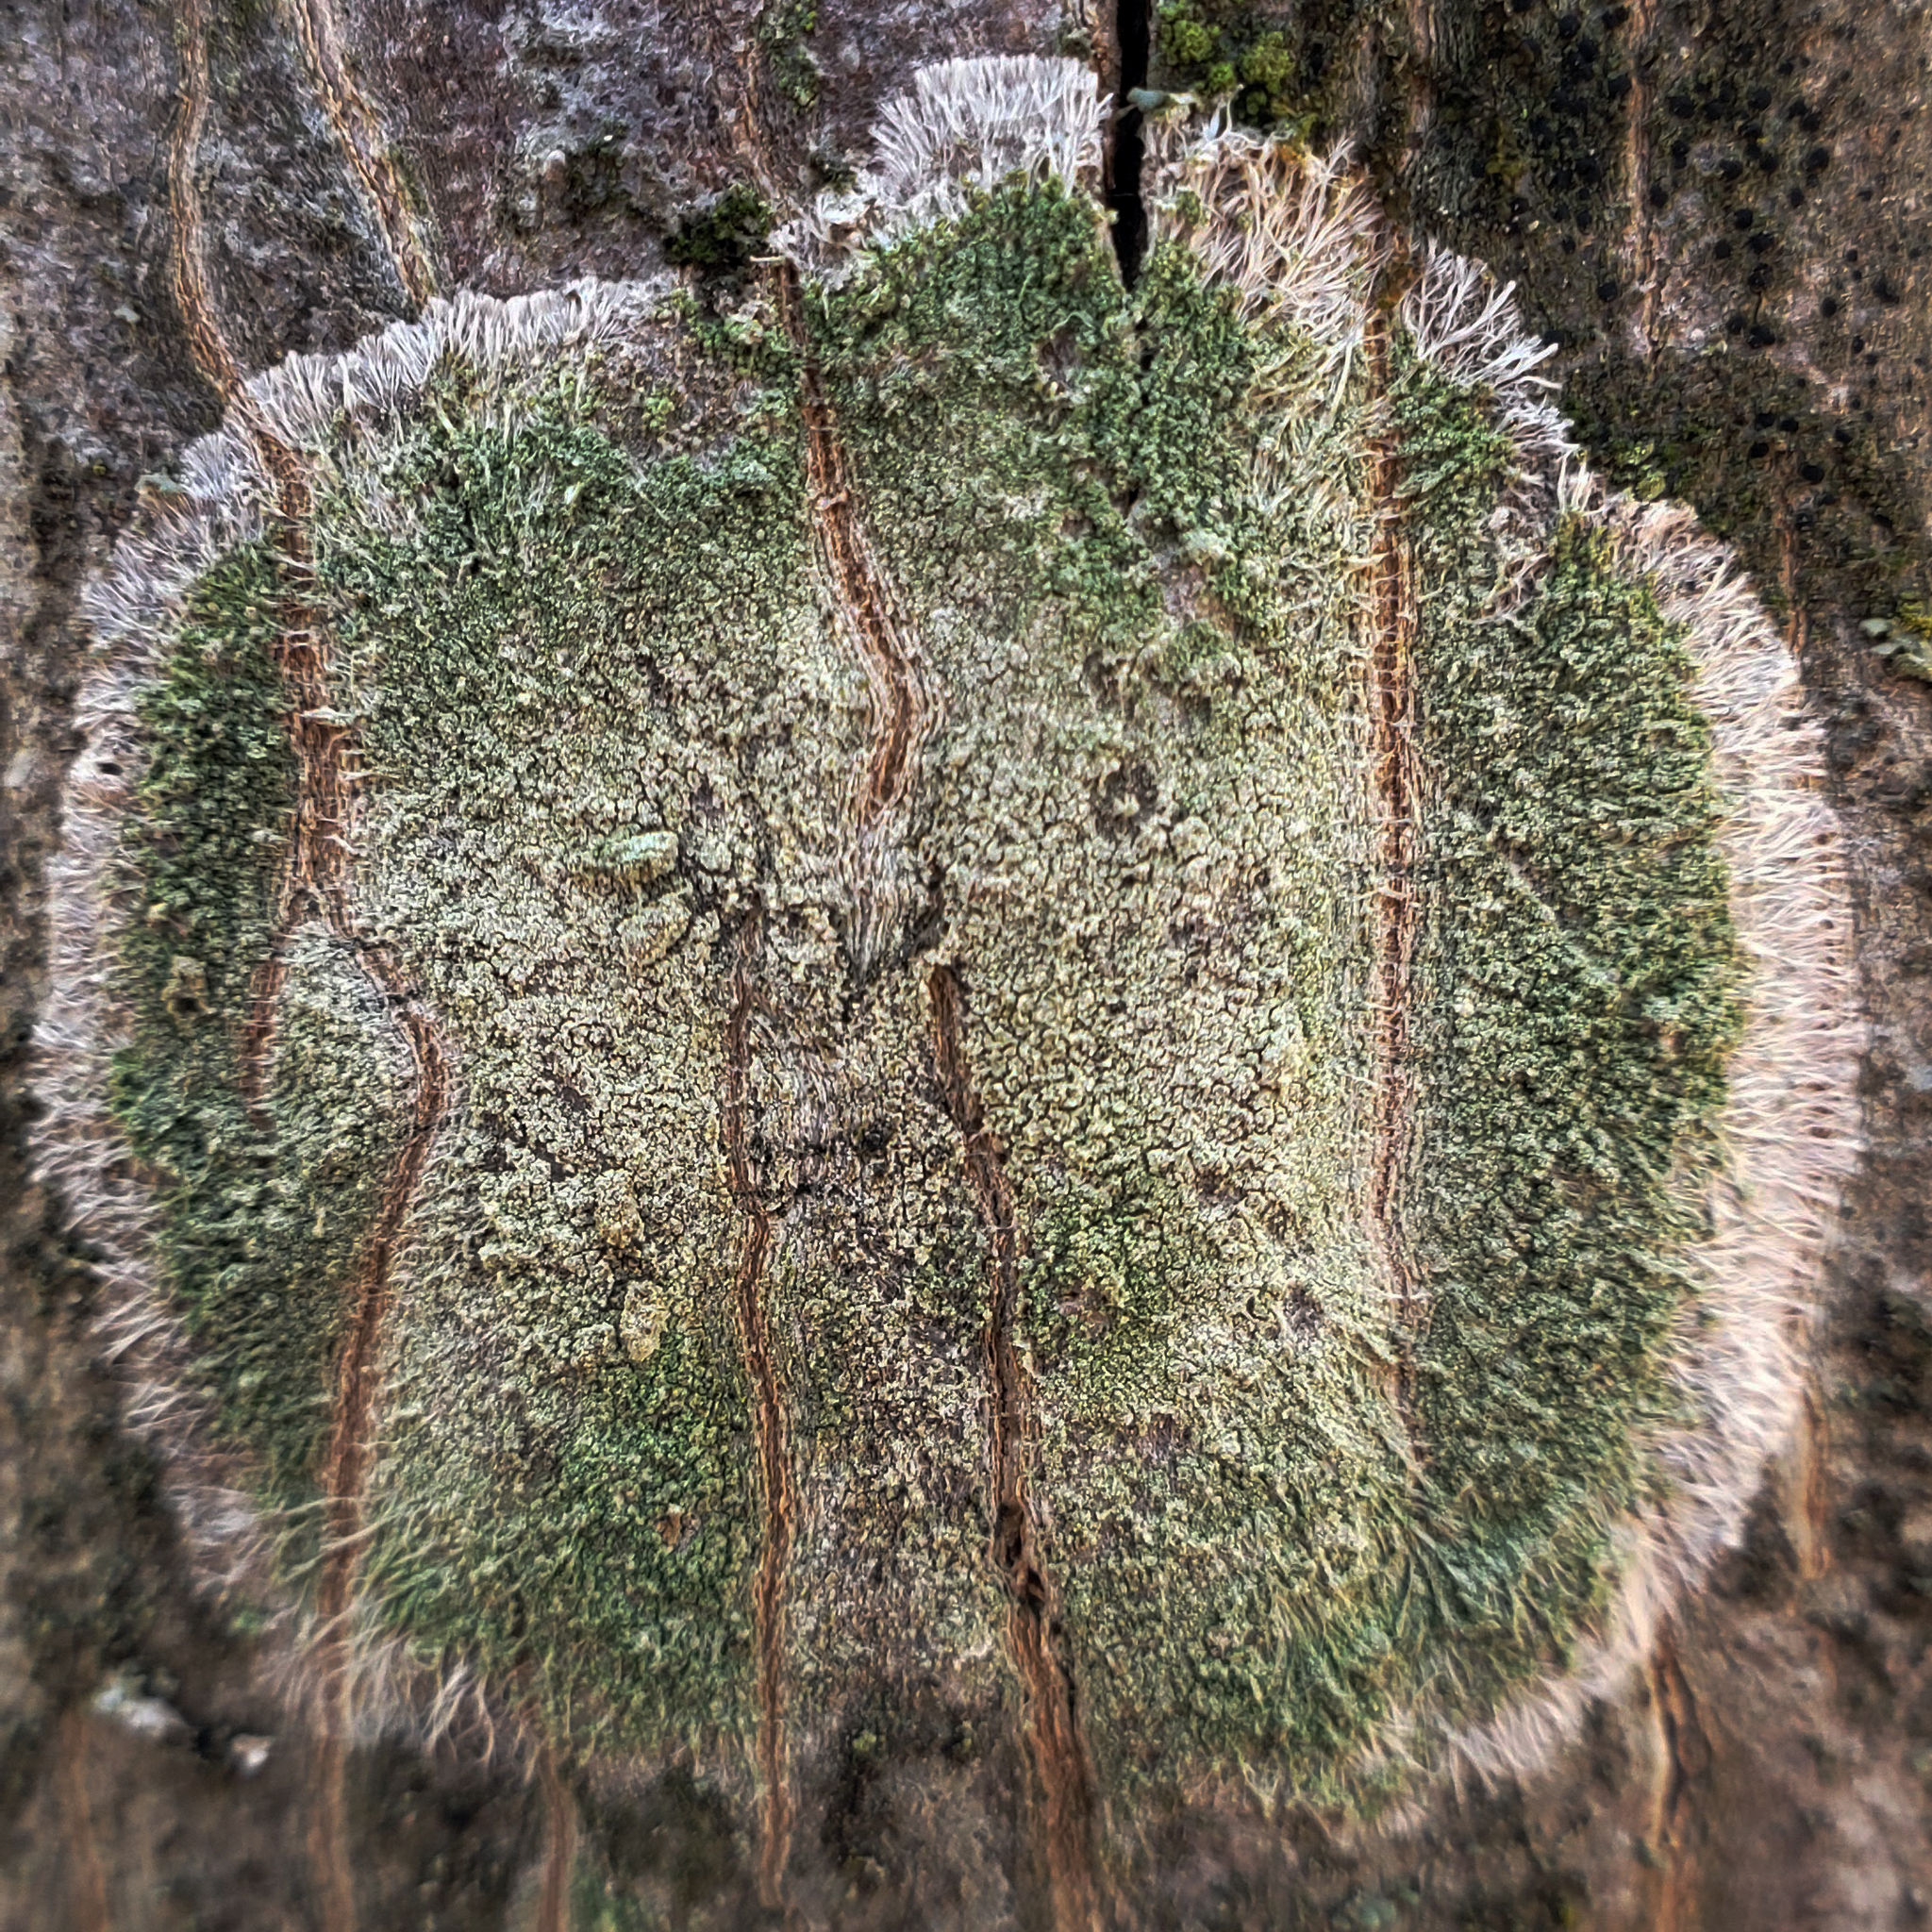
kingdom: Fungi
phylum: Ascomycota
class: Lecanoromycetes
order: Pertusariales
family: Pertusariaceae
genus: Verseghya
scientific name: Verseghya thysanophora
